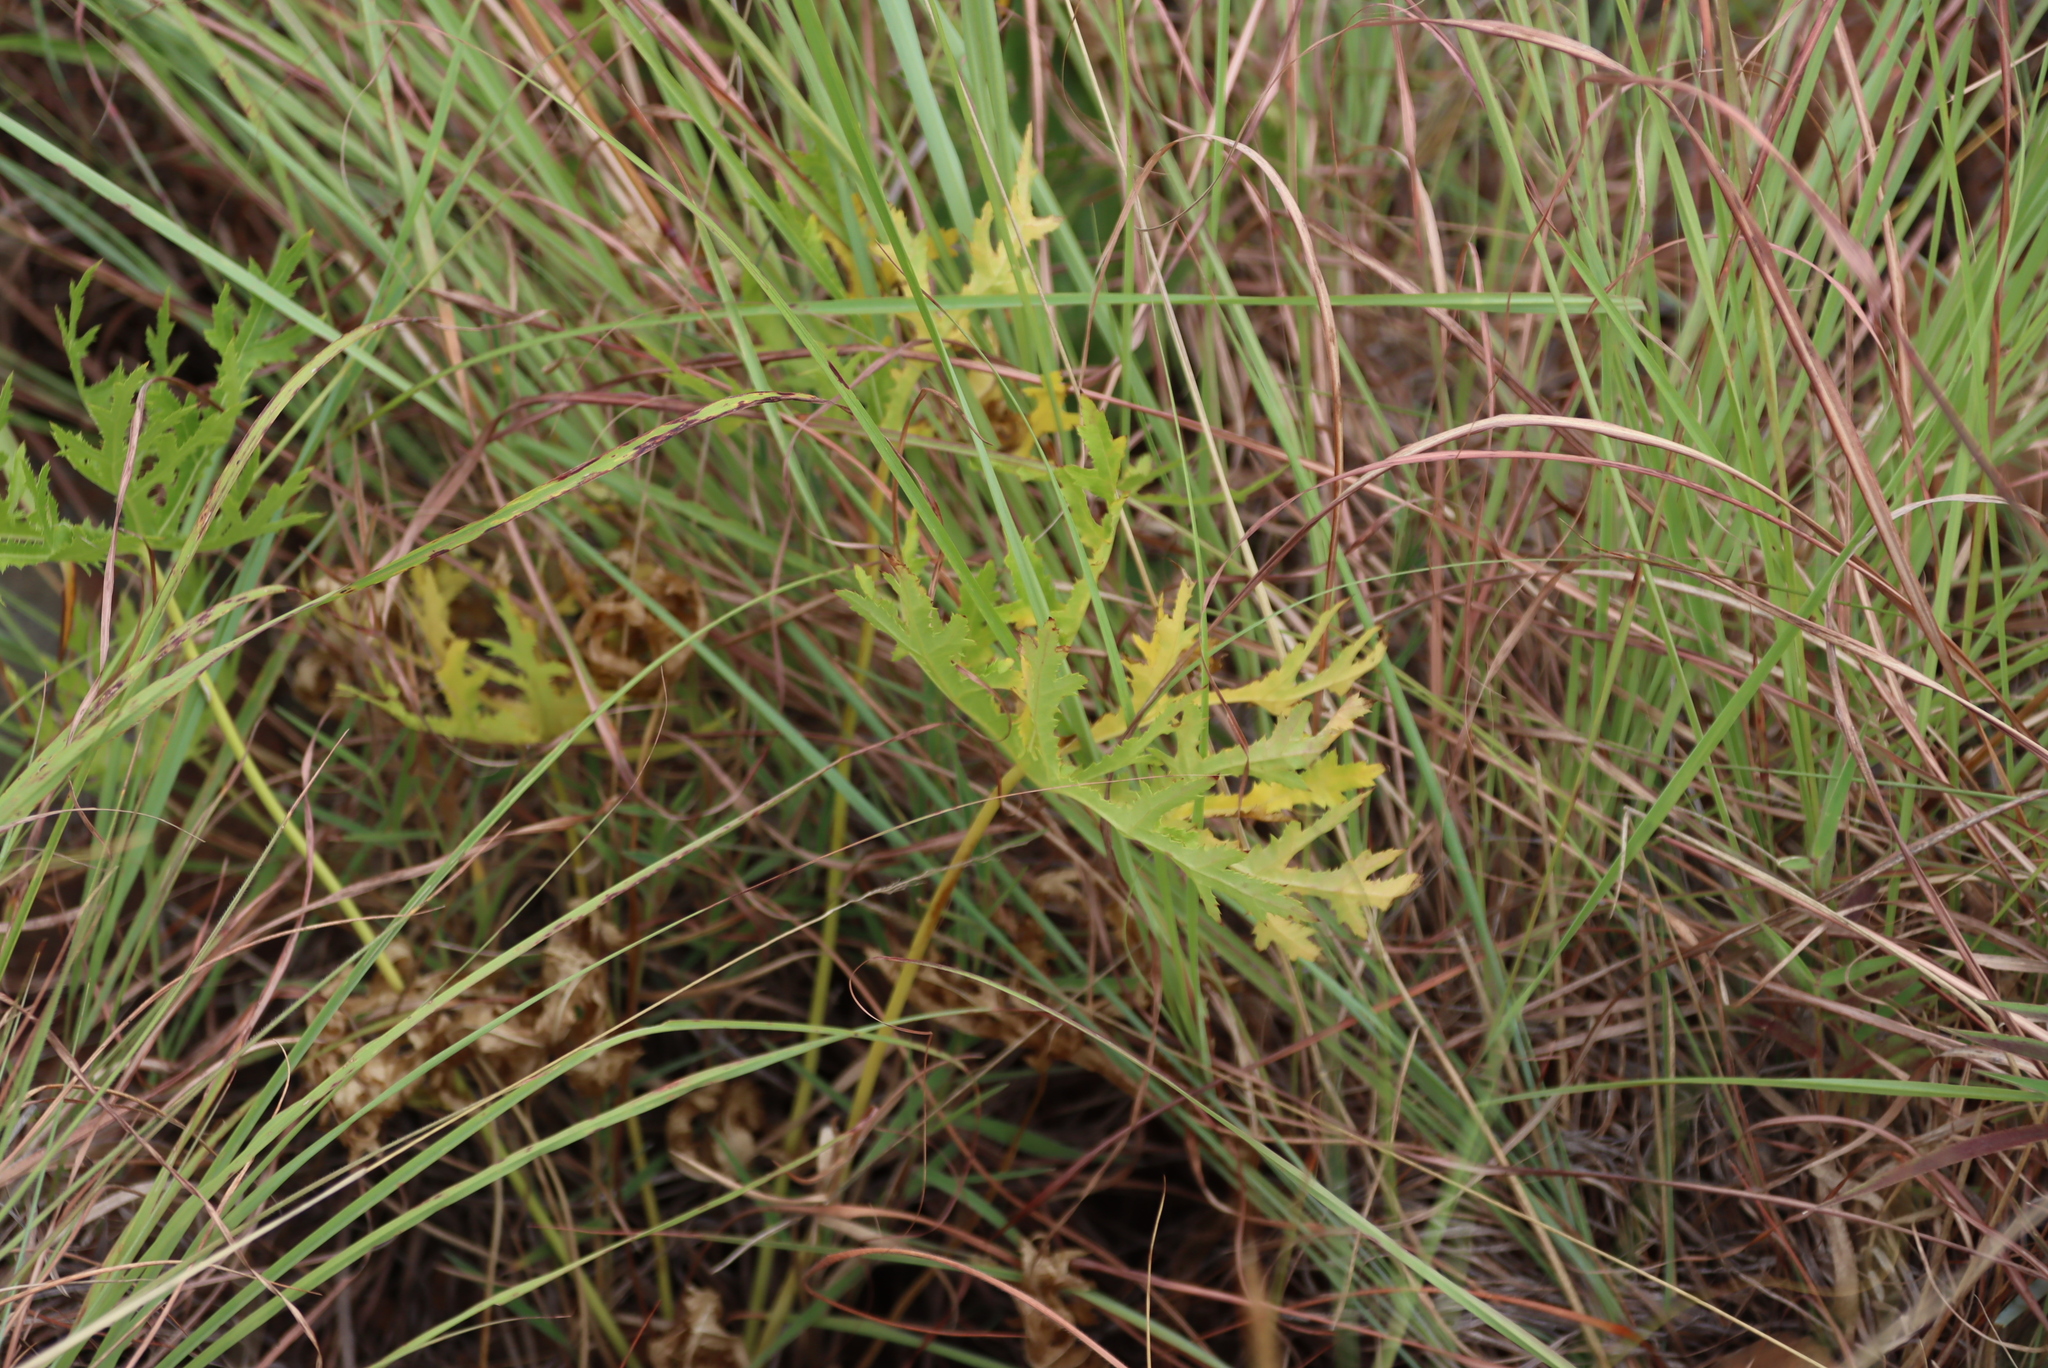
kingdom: Plantae
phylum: Tracheophyta
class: Magnoliopsida
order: Apiales
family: Apiaceae
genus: Dracosciadium
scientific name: Dracosciadium italae
